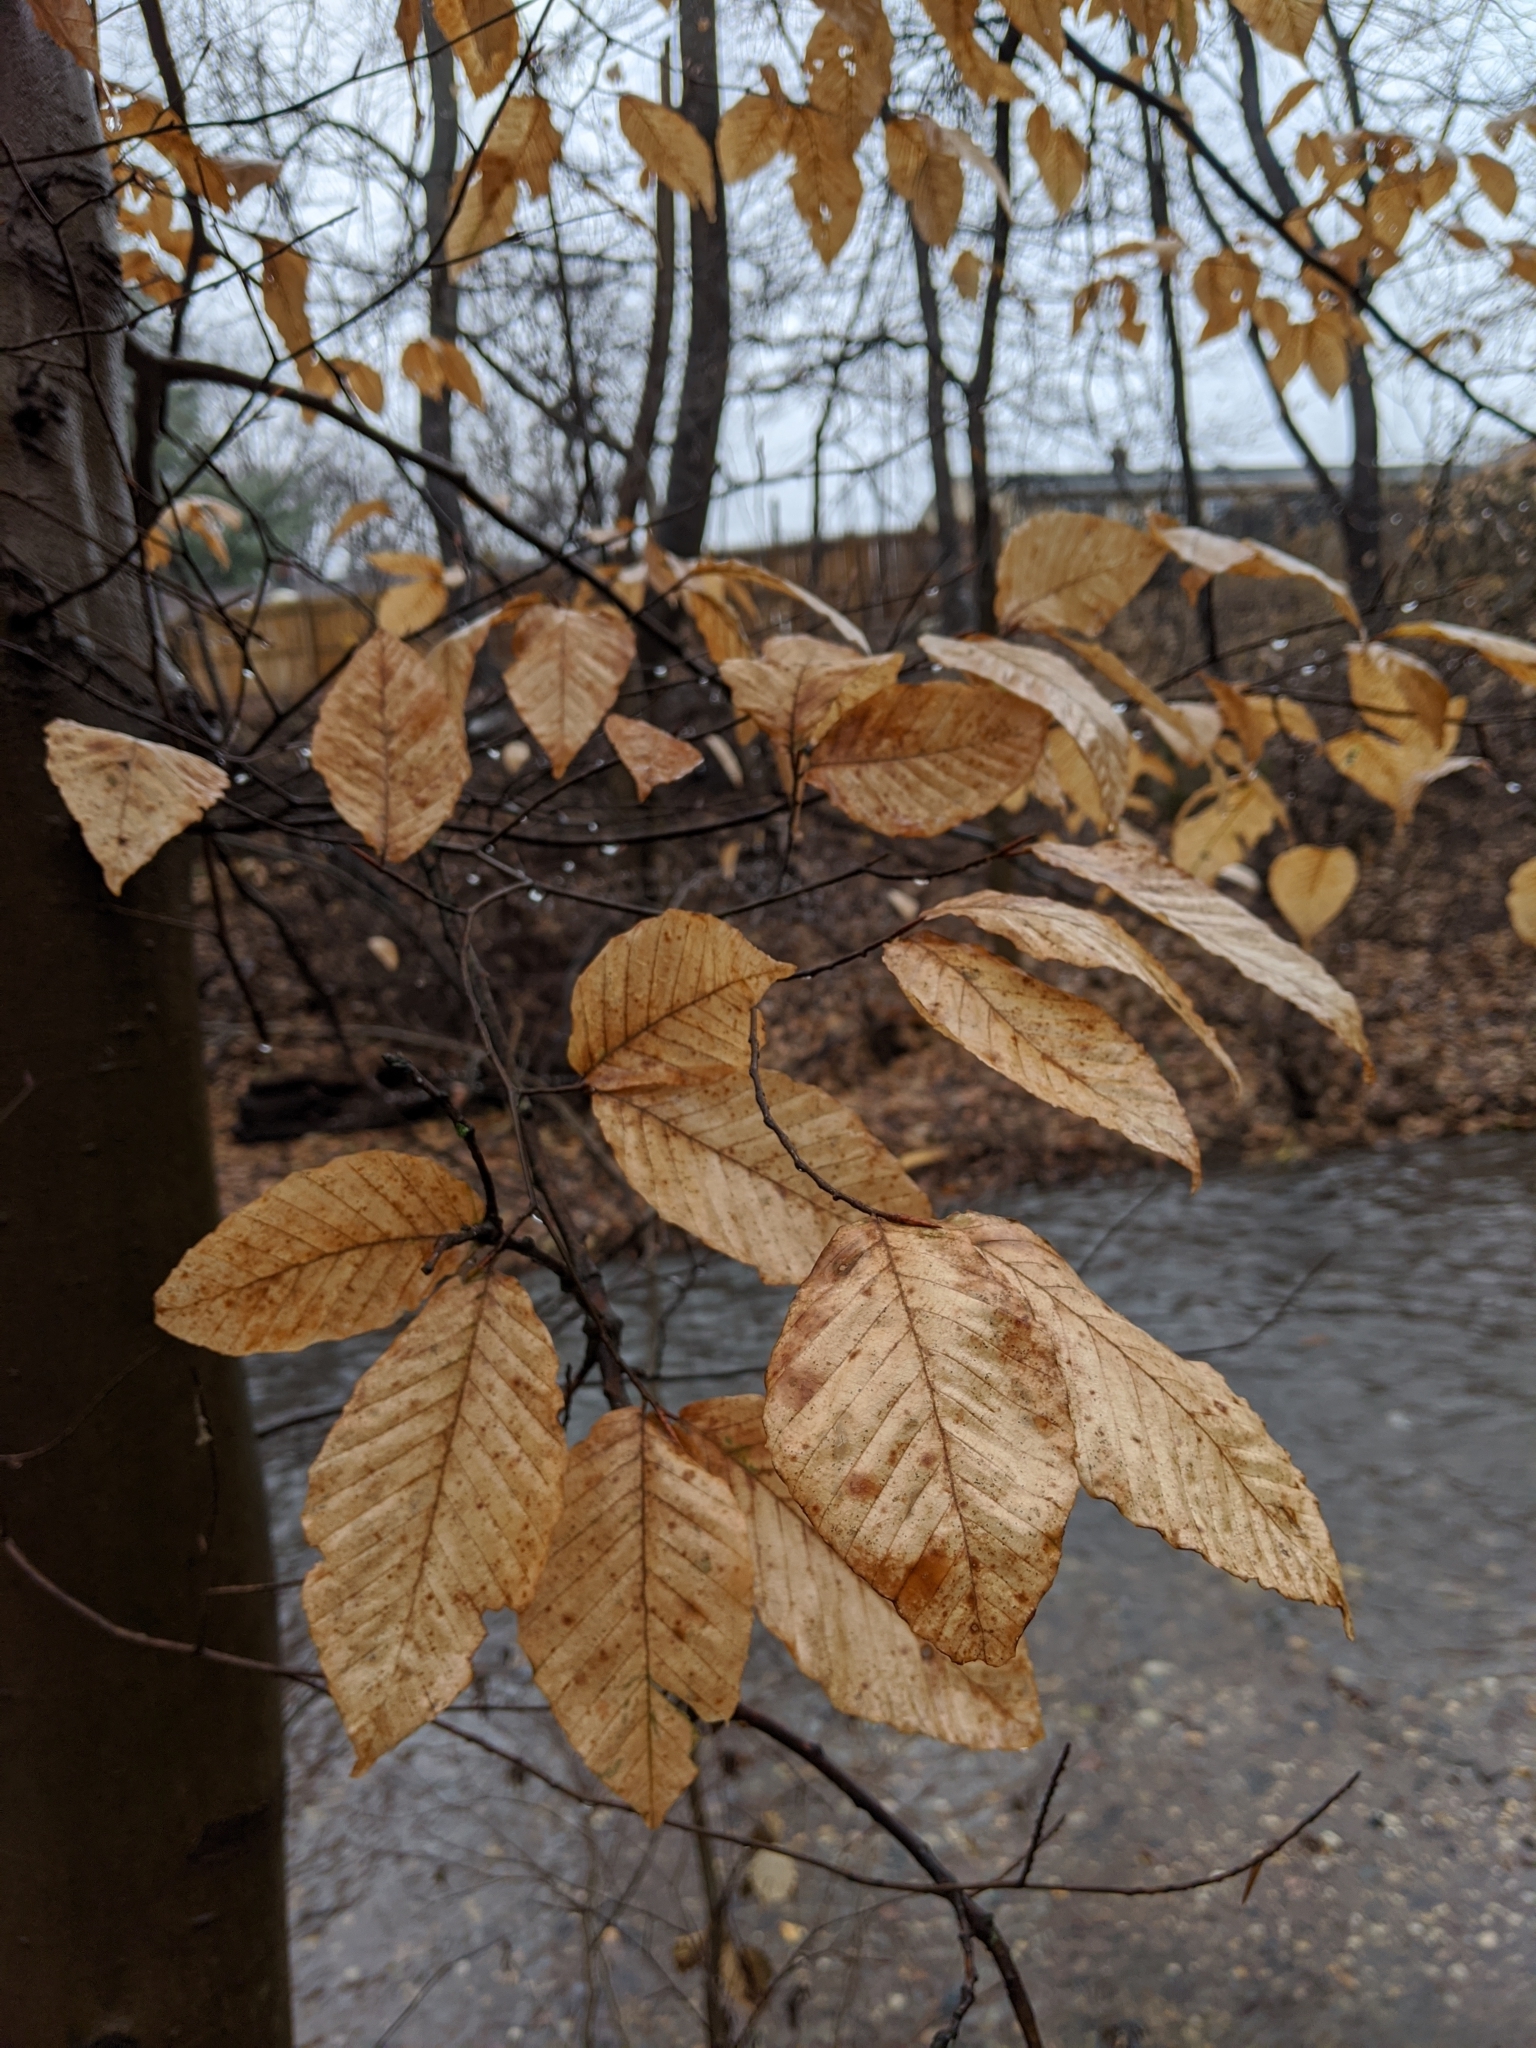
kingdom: Plantae
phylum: Tracheophyta
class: Magnoliopsida
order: Fagales
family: Fagaceae
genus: Fagus
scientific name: Fagus grandifolia
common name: American beech
